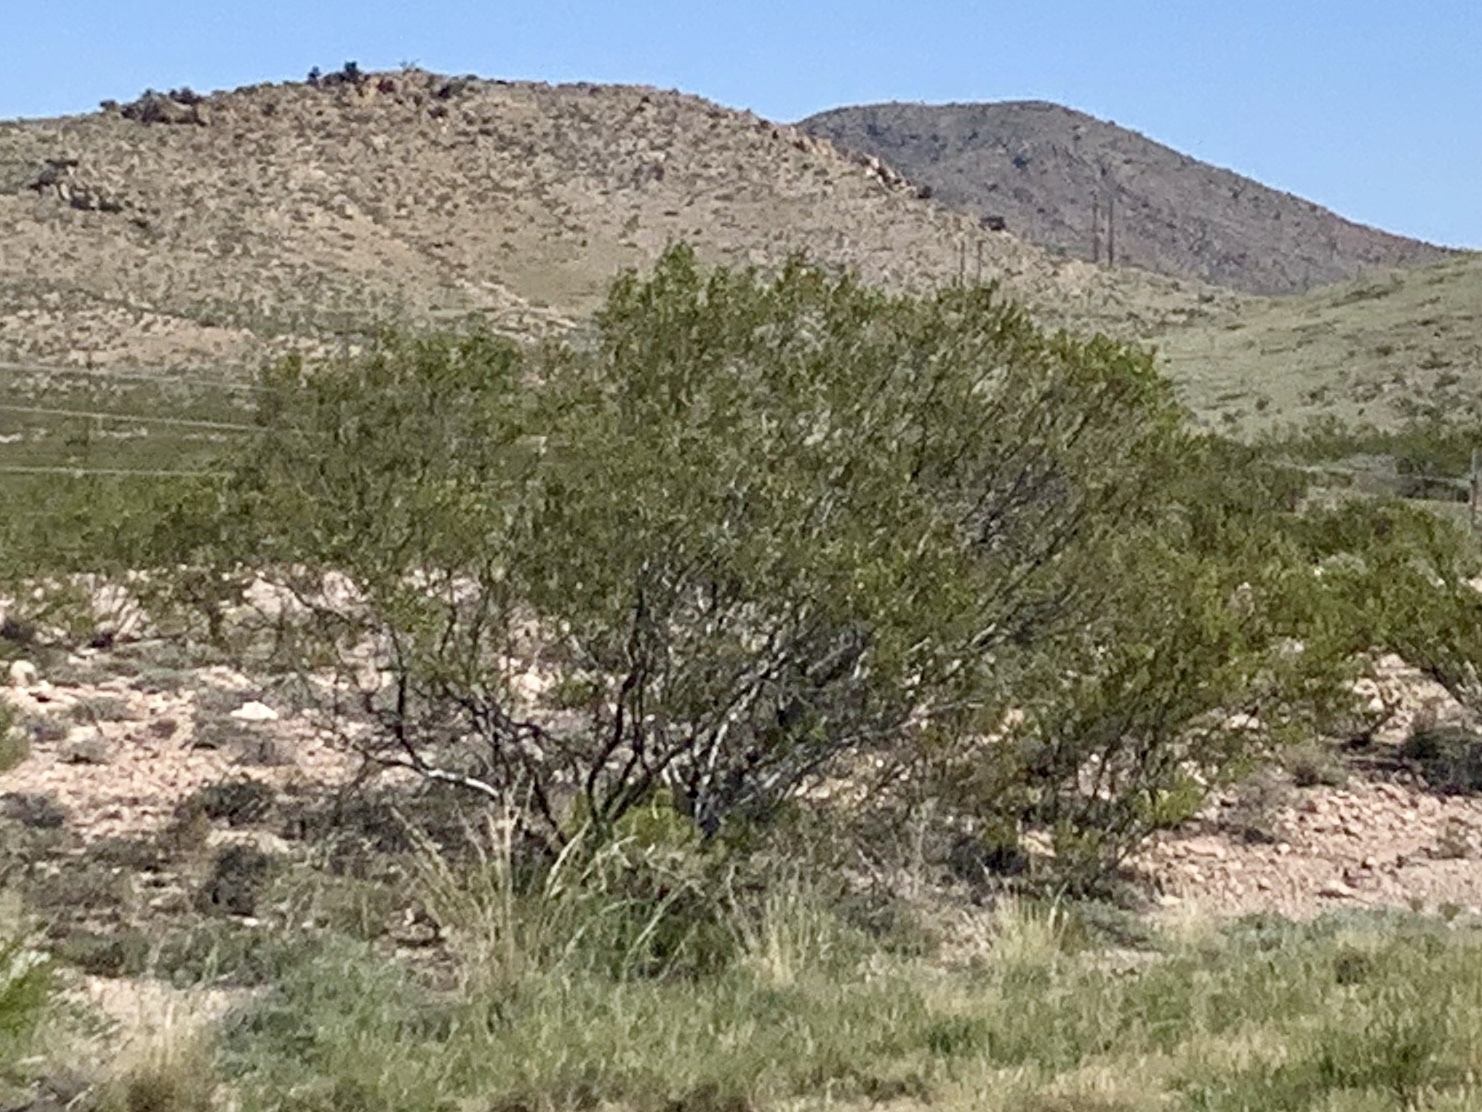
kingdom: Plantae
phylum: Tracheophyta
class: Magnoliopsida
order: Zygophyllales
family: Zygophyllaceae
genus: Larrea
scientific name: Larrea tridentata
